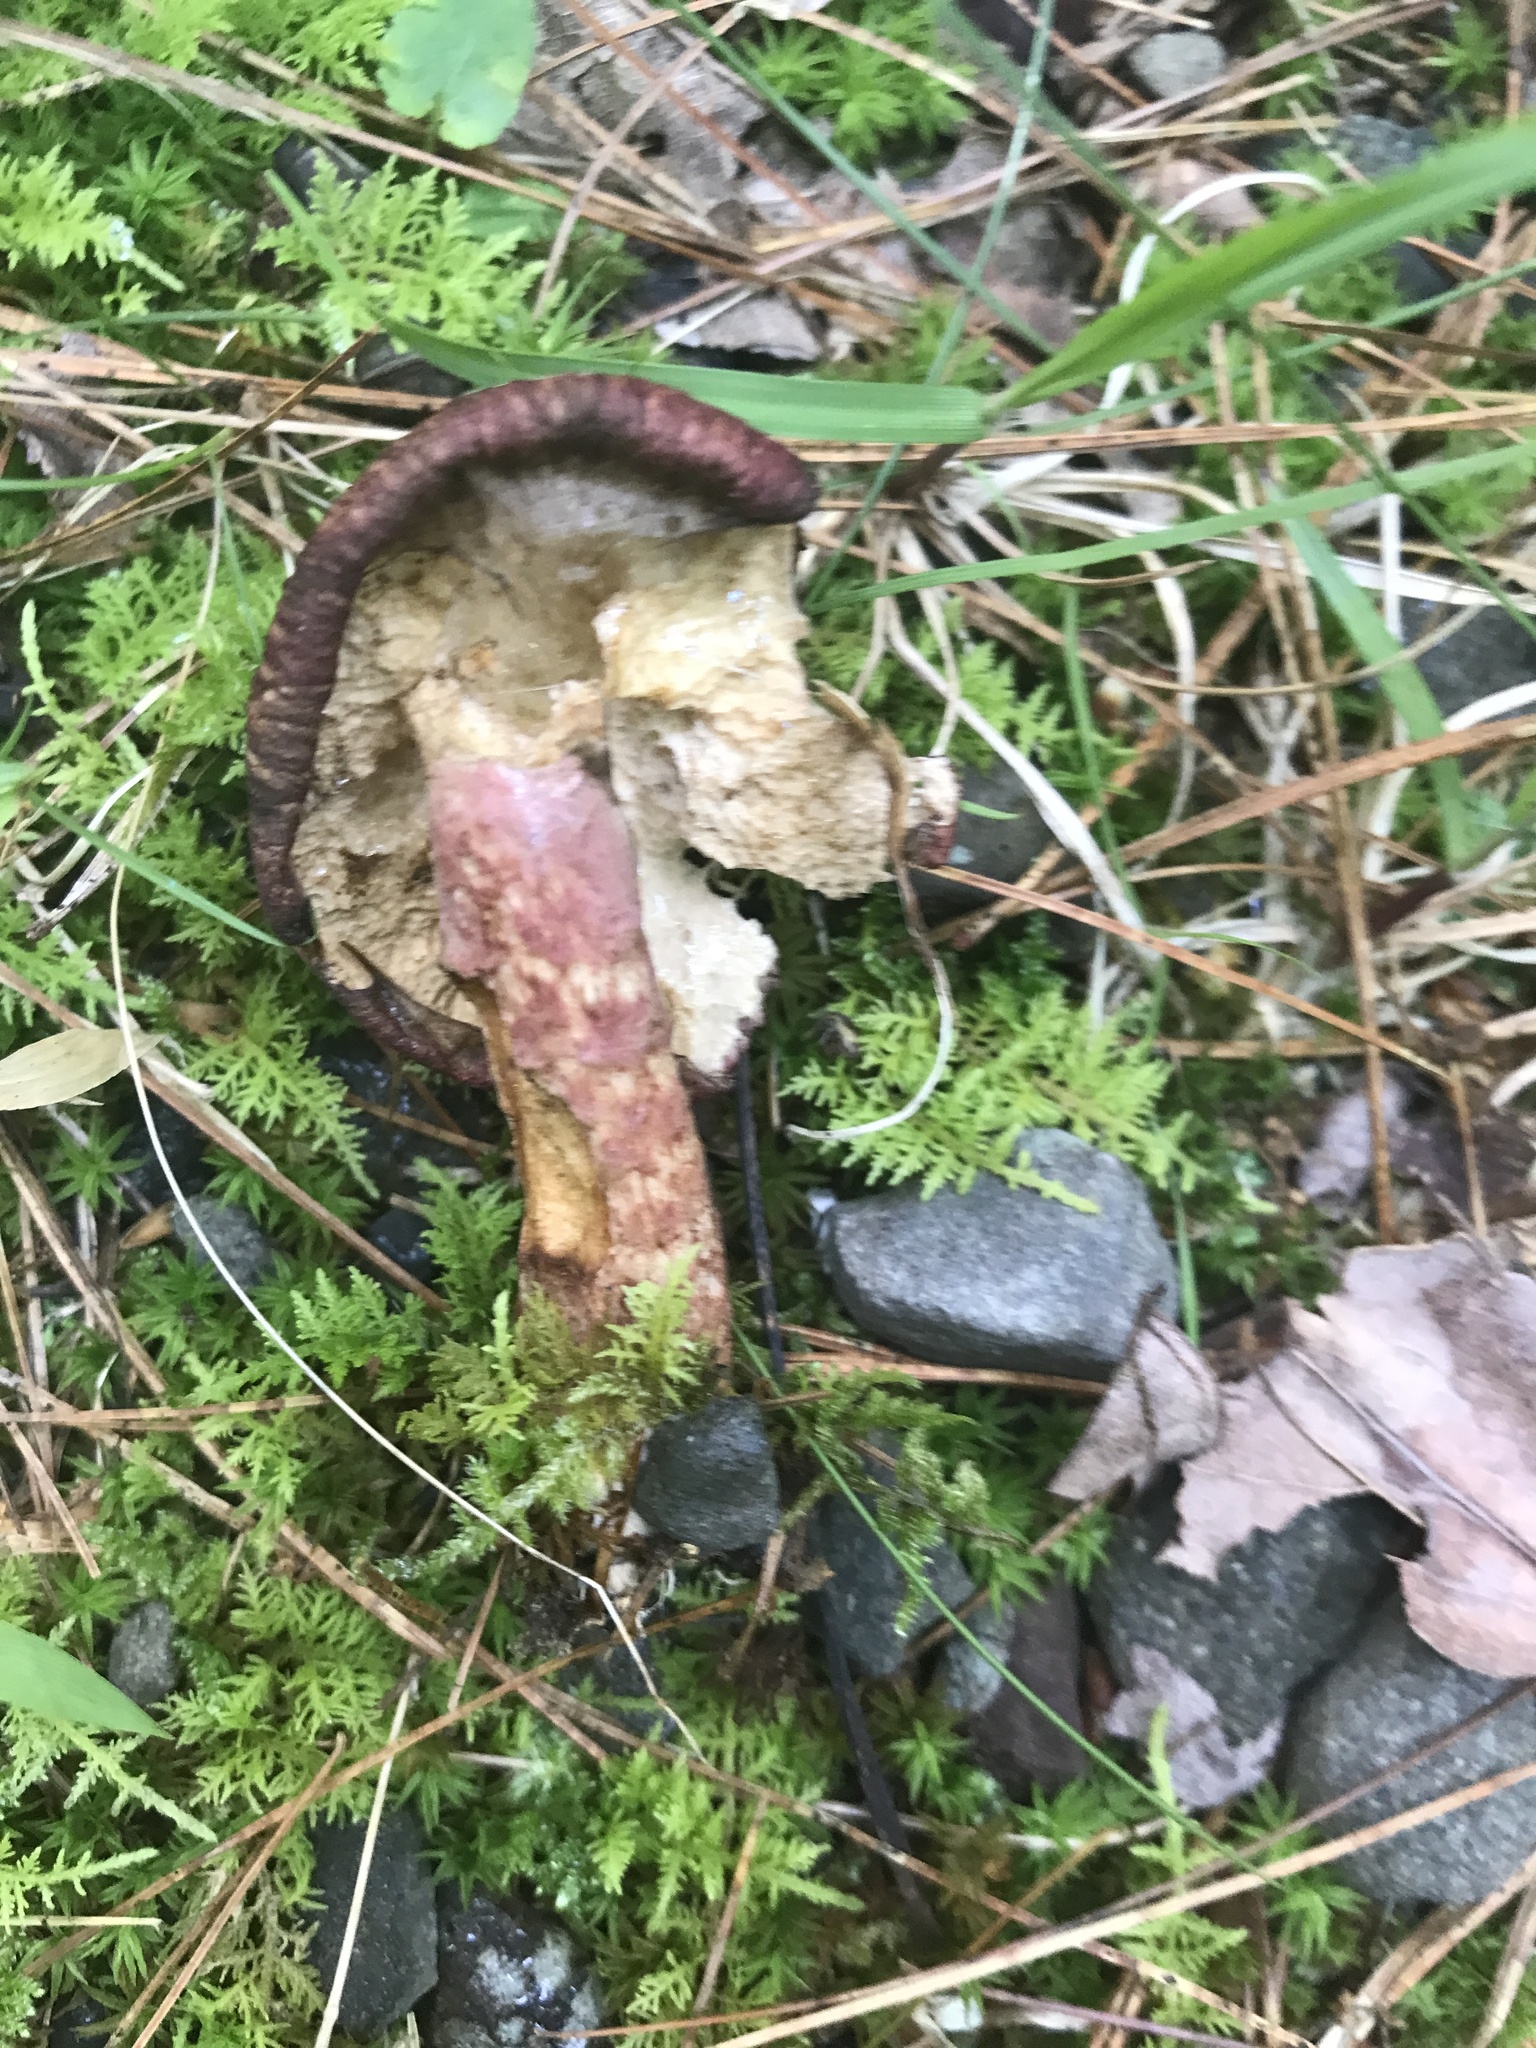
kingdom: Fungi
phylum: Basidiomycota
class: Agaricomycetes
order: Boletales
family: Suillaceae
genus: Suillus
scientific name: Suillus spraguei
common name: Painted suillus
